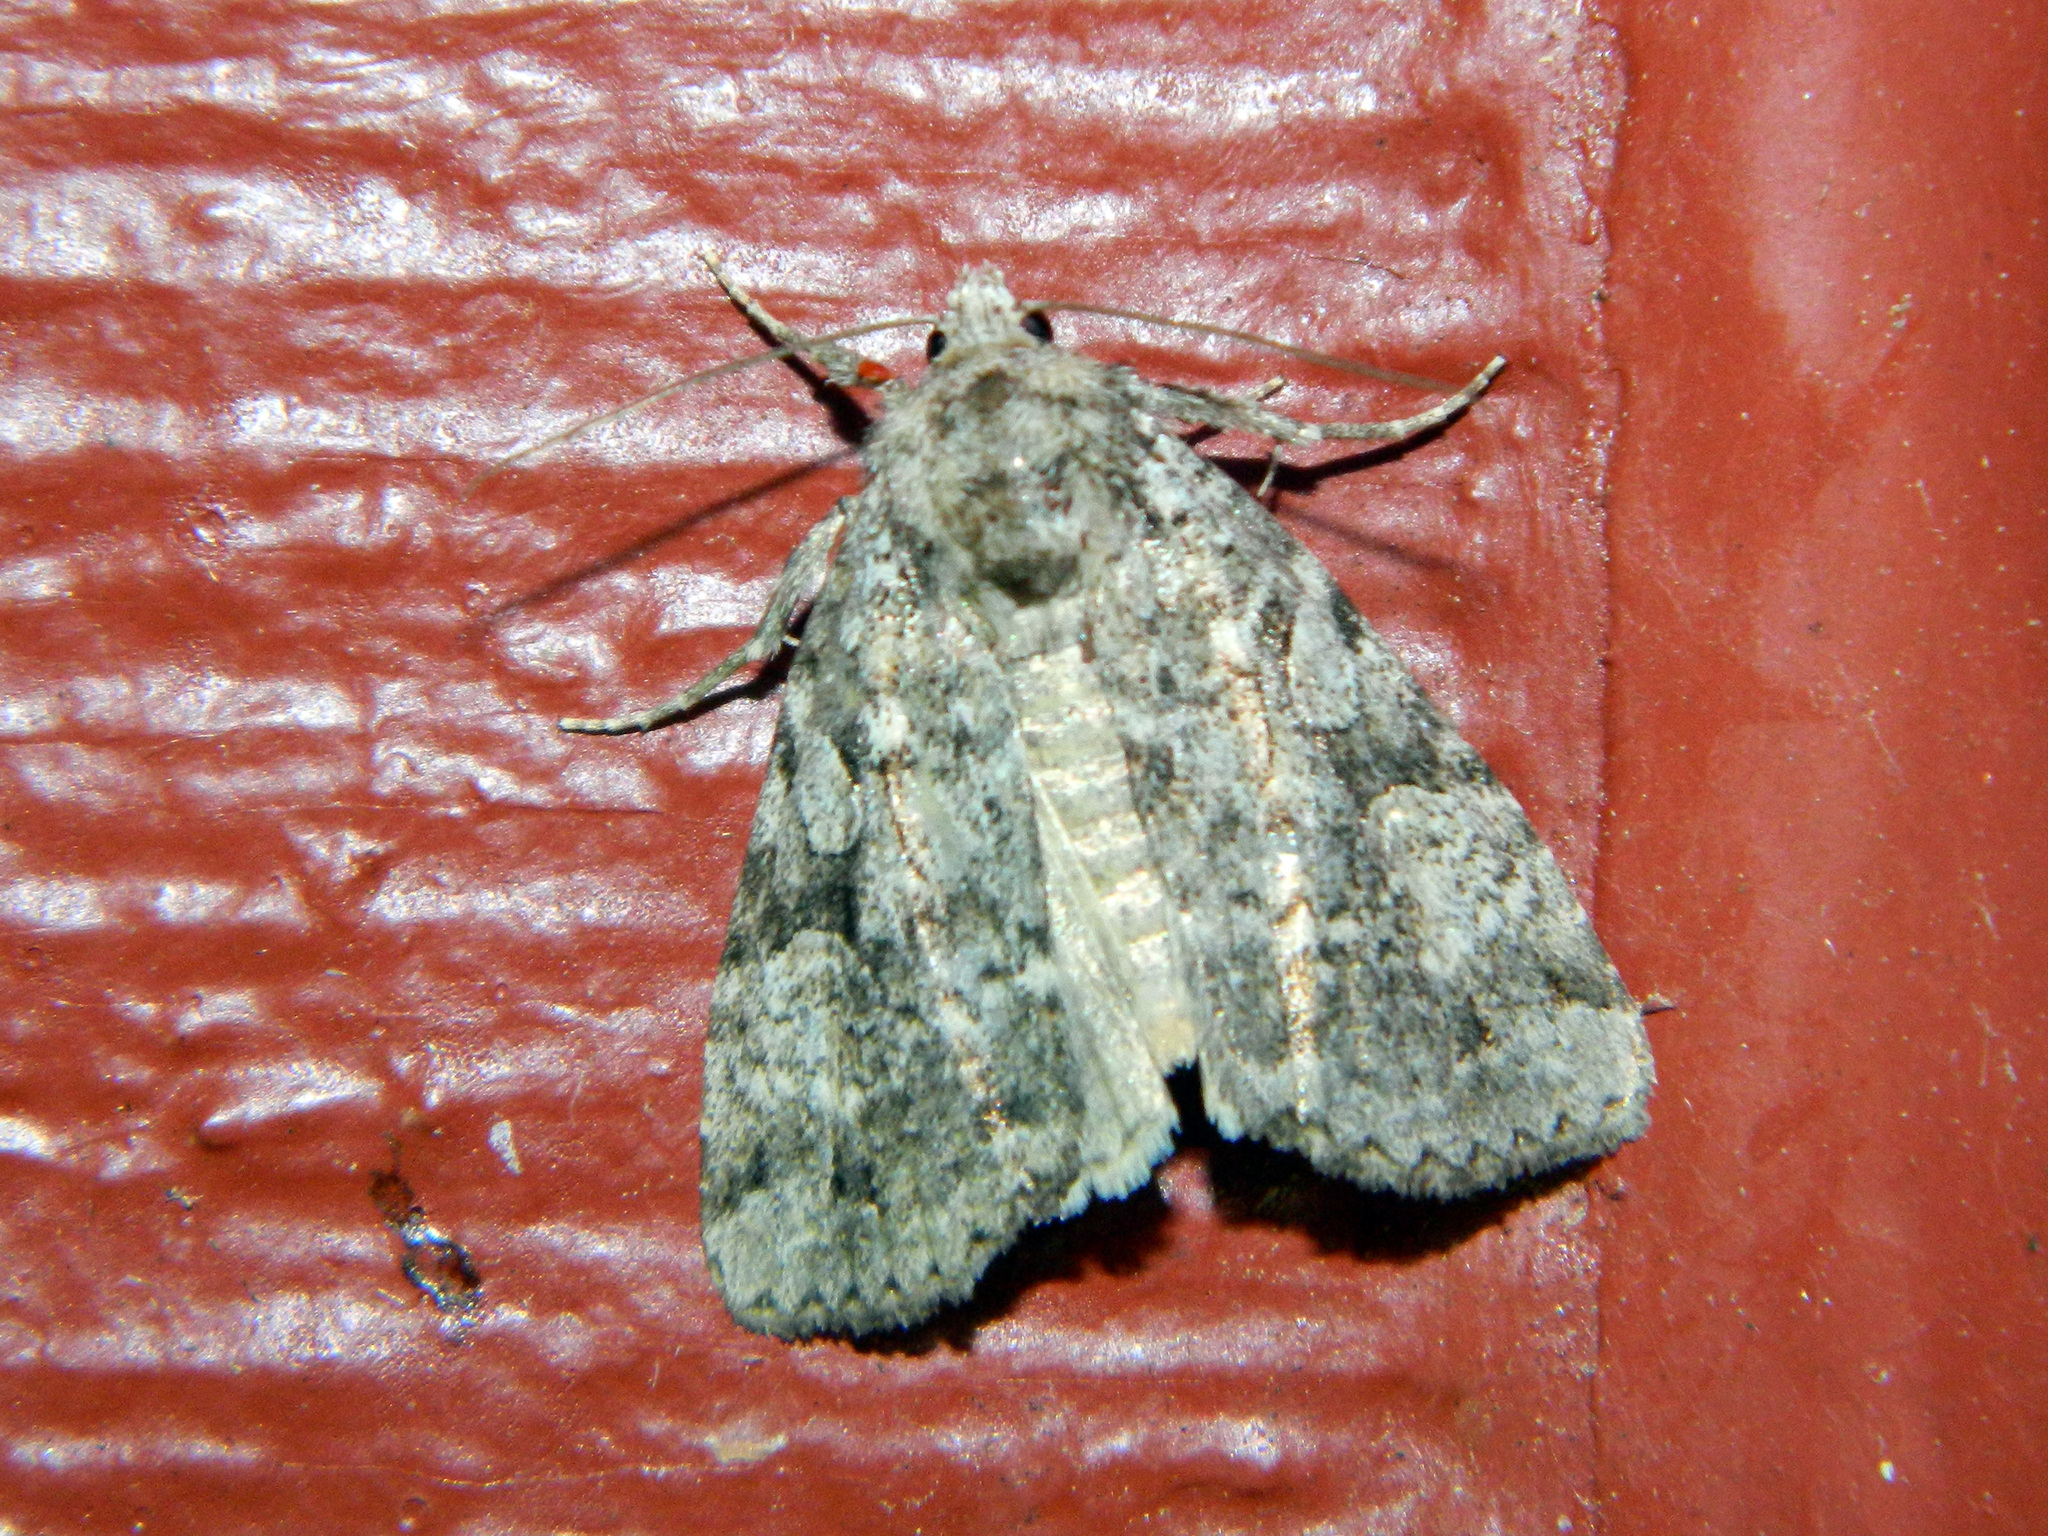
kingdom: Animalia
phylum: Arthropoda
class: Insecta
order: Lepidoptera
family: Noctuidae
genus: Anaplectoides
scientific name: Anaplectoides pressus
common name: Dappled dart
